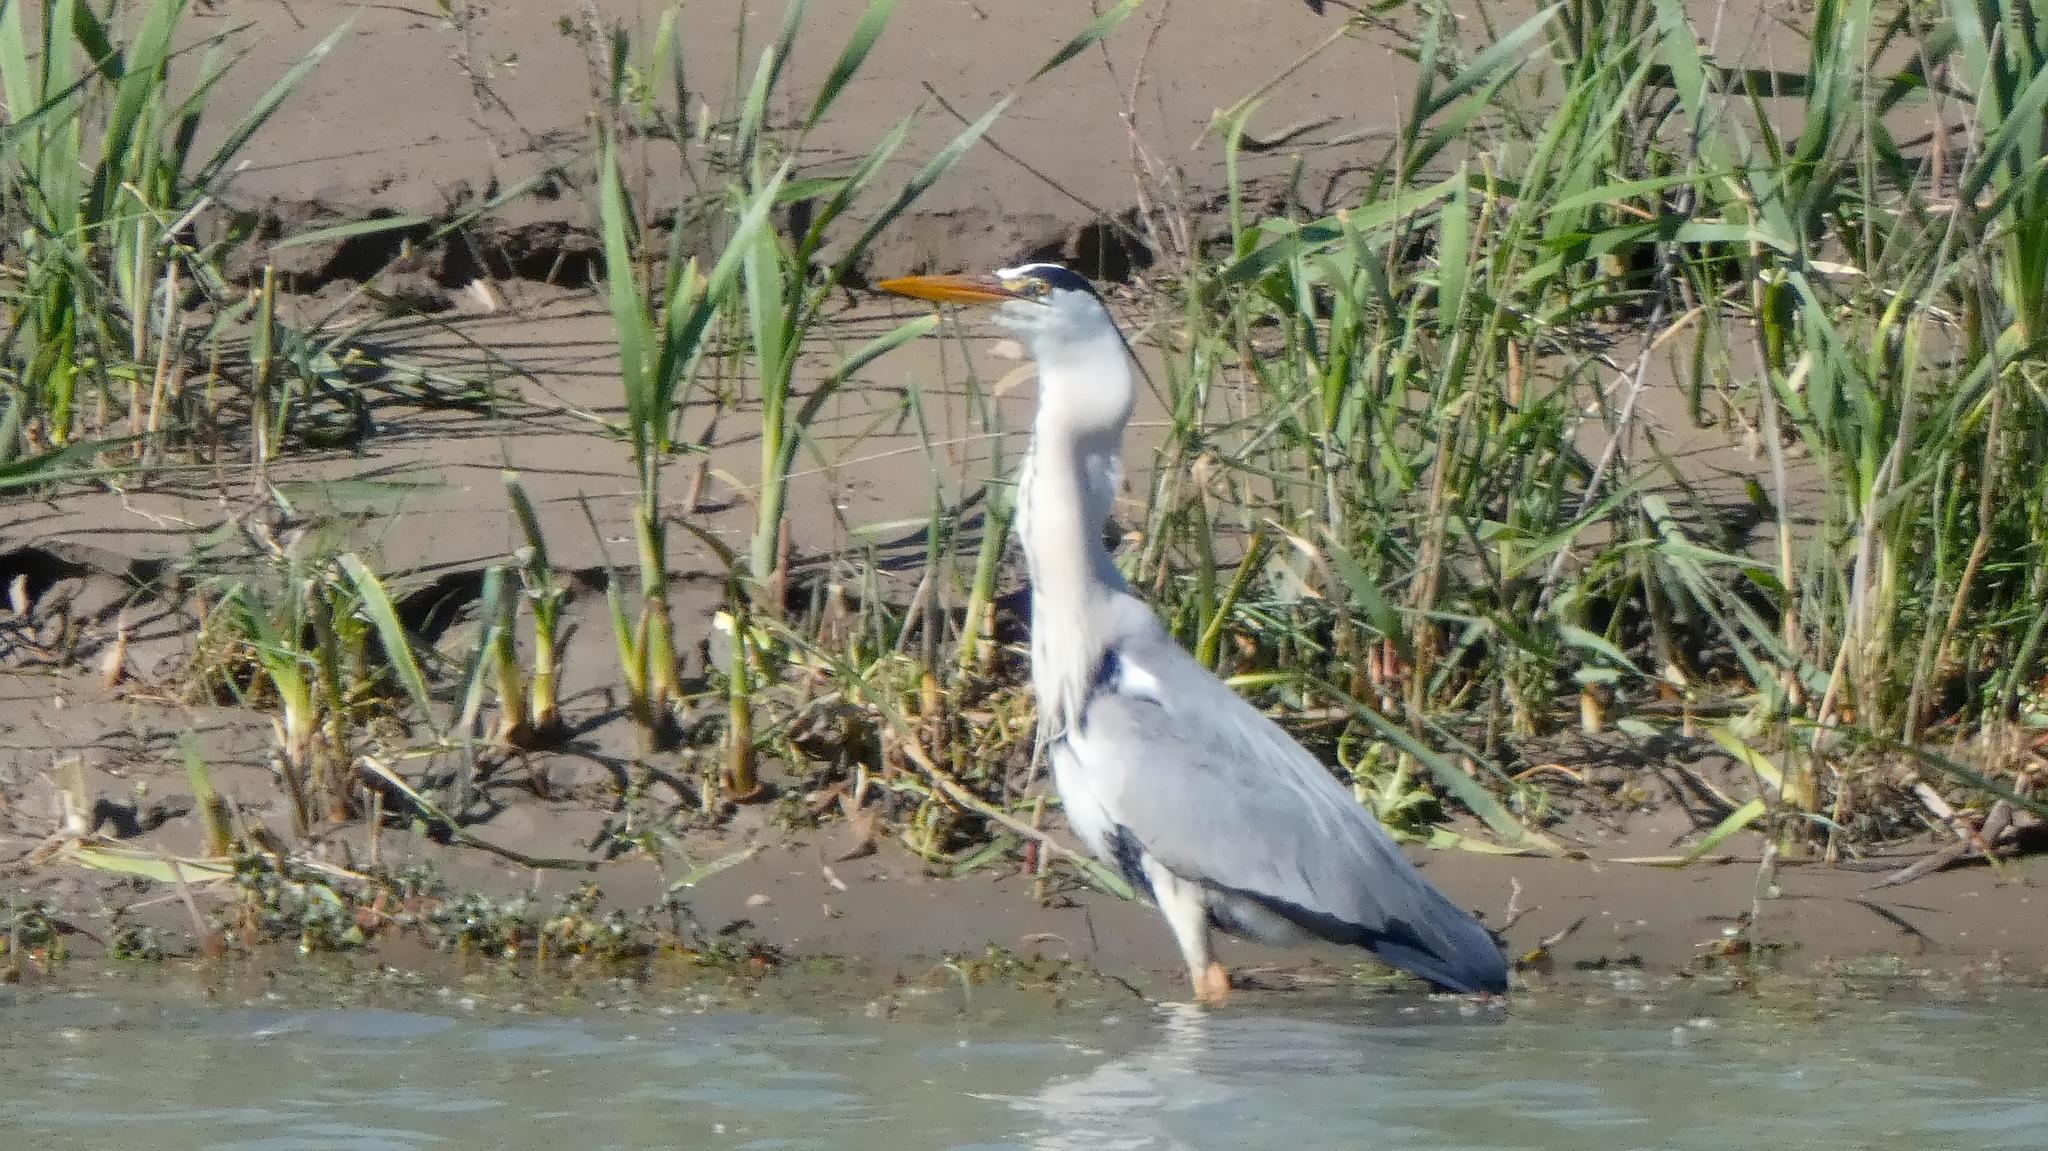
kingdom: Animalia
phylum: Chordata
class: Aves
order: Pelecaniformes
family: Ardeidae
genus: Ardea
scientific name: Ardea cinerea
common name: Grey heron
